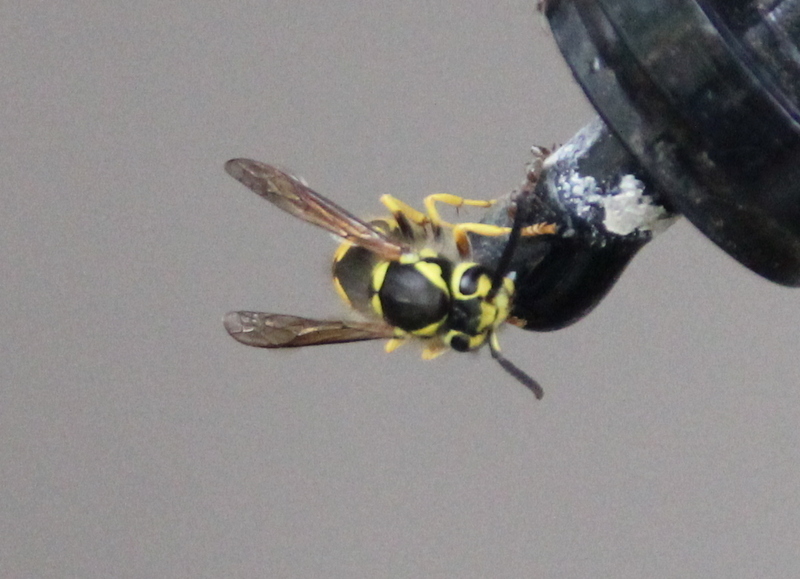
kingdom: Animalia
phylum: Arthropoda
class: Insecta
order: Hymenoptera
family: Vespidae
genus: Vespula
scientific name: Vespula pensylvanica
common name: Western yellowjacket
